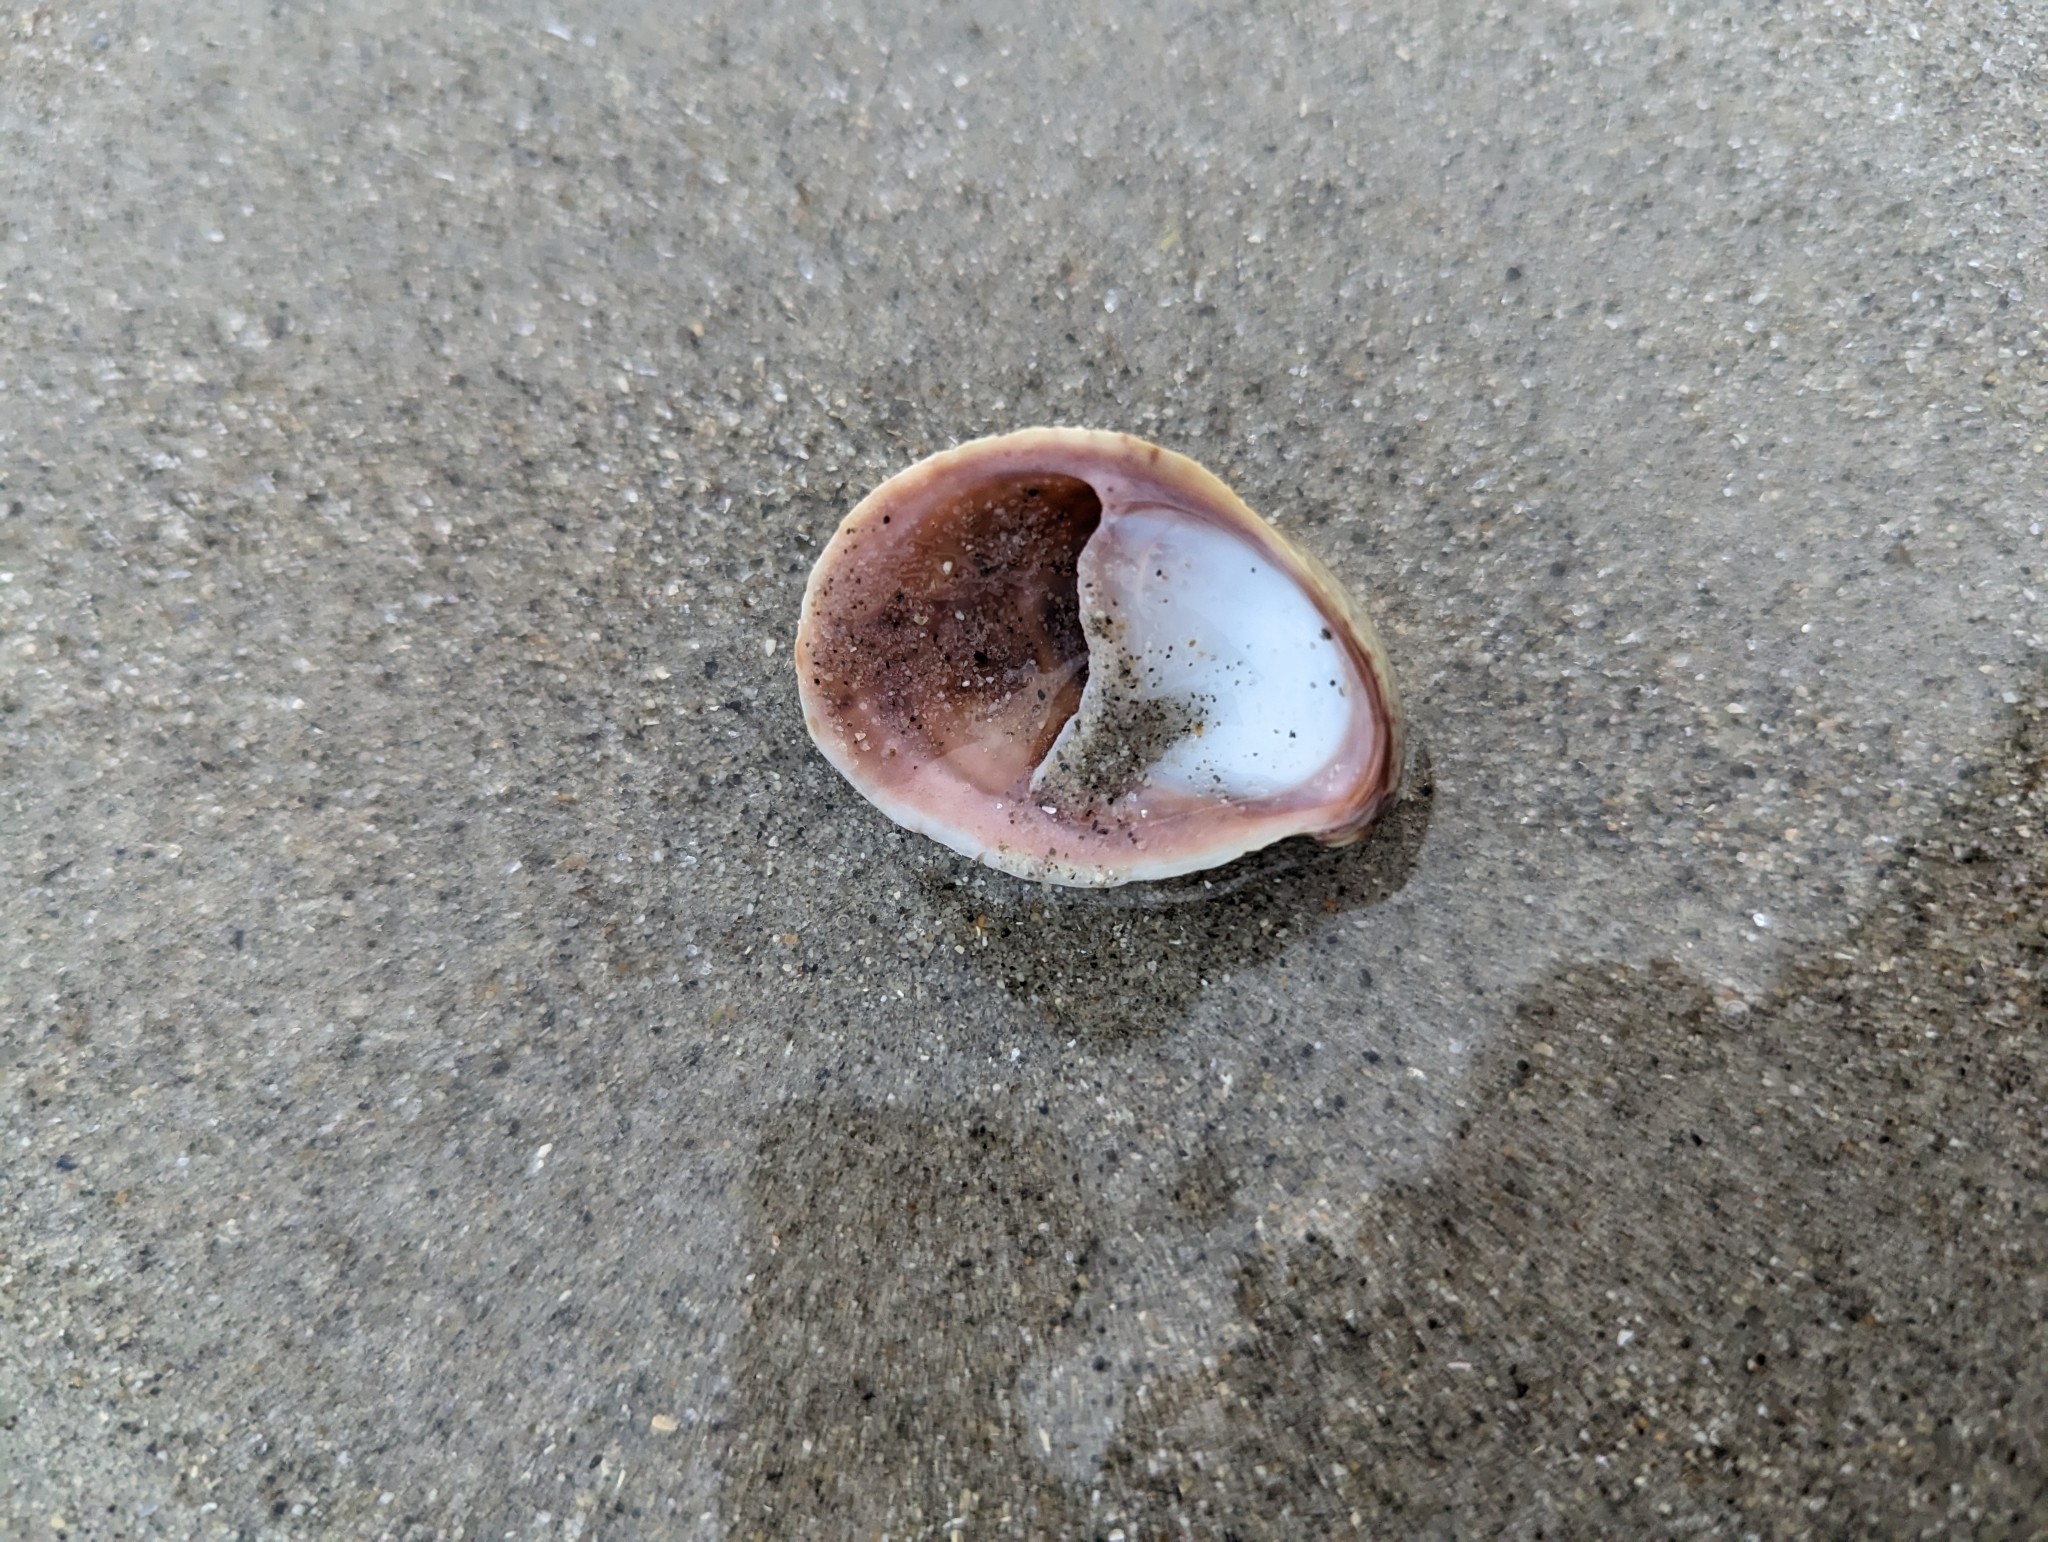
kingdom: Animalia
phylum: Mollusca
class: Gastropoda
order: Littorinimorpha
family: Calyptraeidae
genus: Crepidula
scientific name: Crepidula fornicata
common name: Slipper limpet
